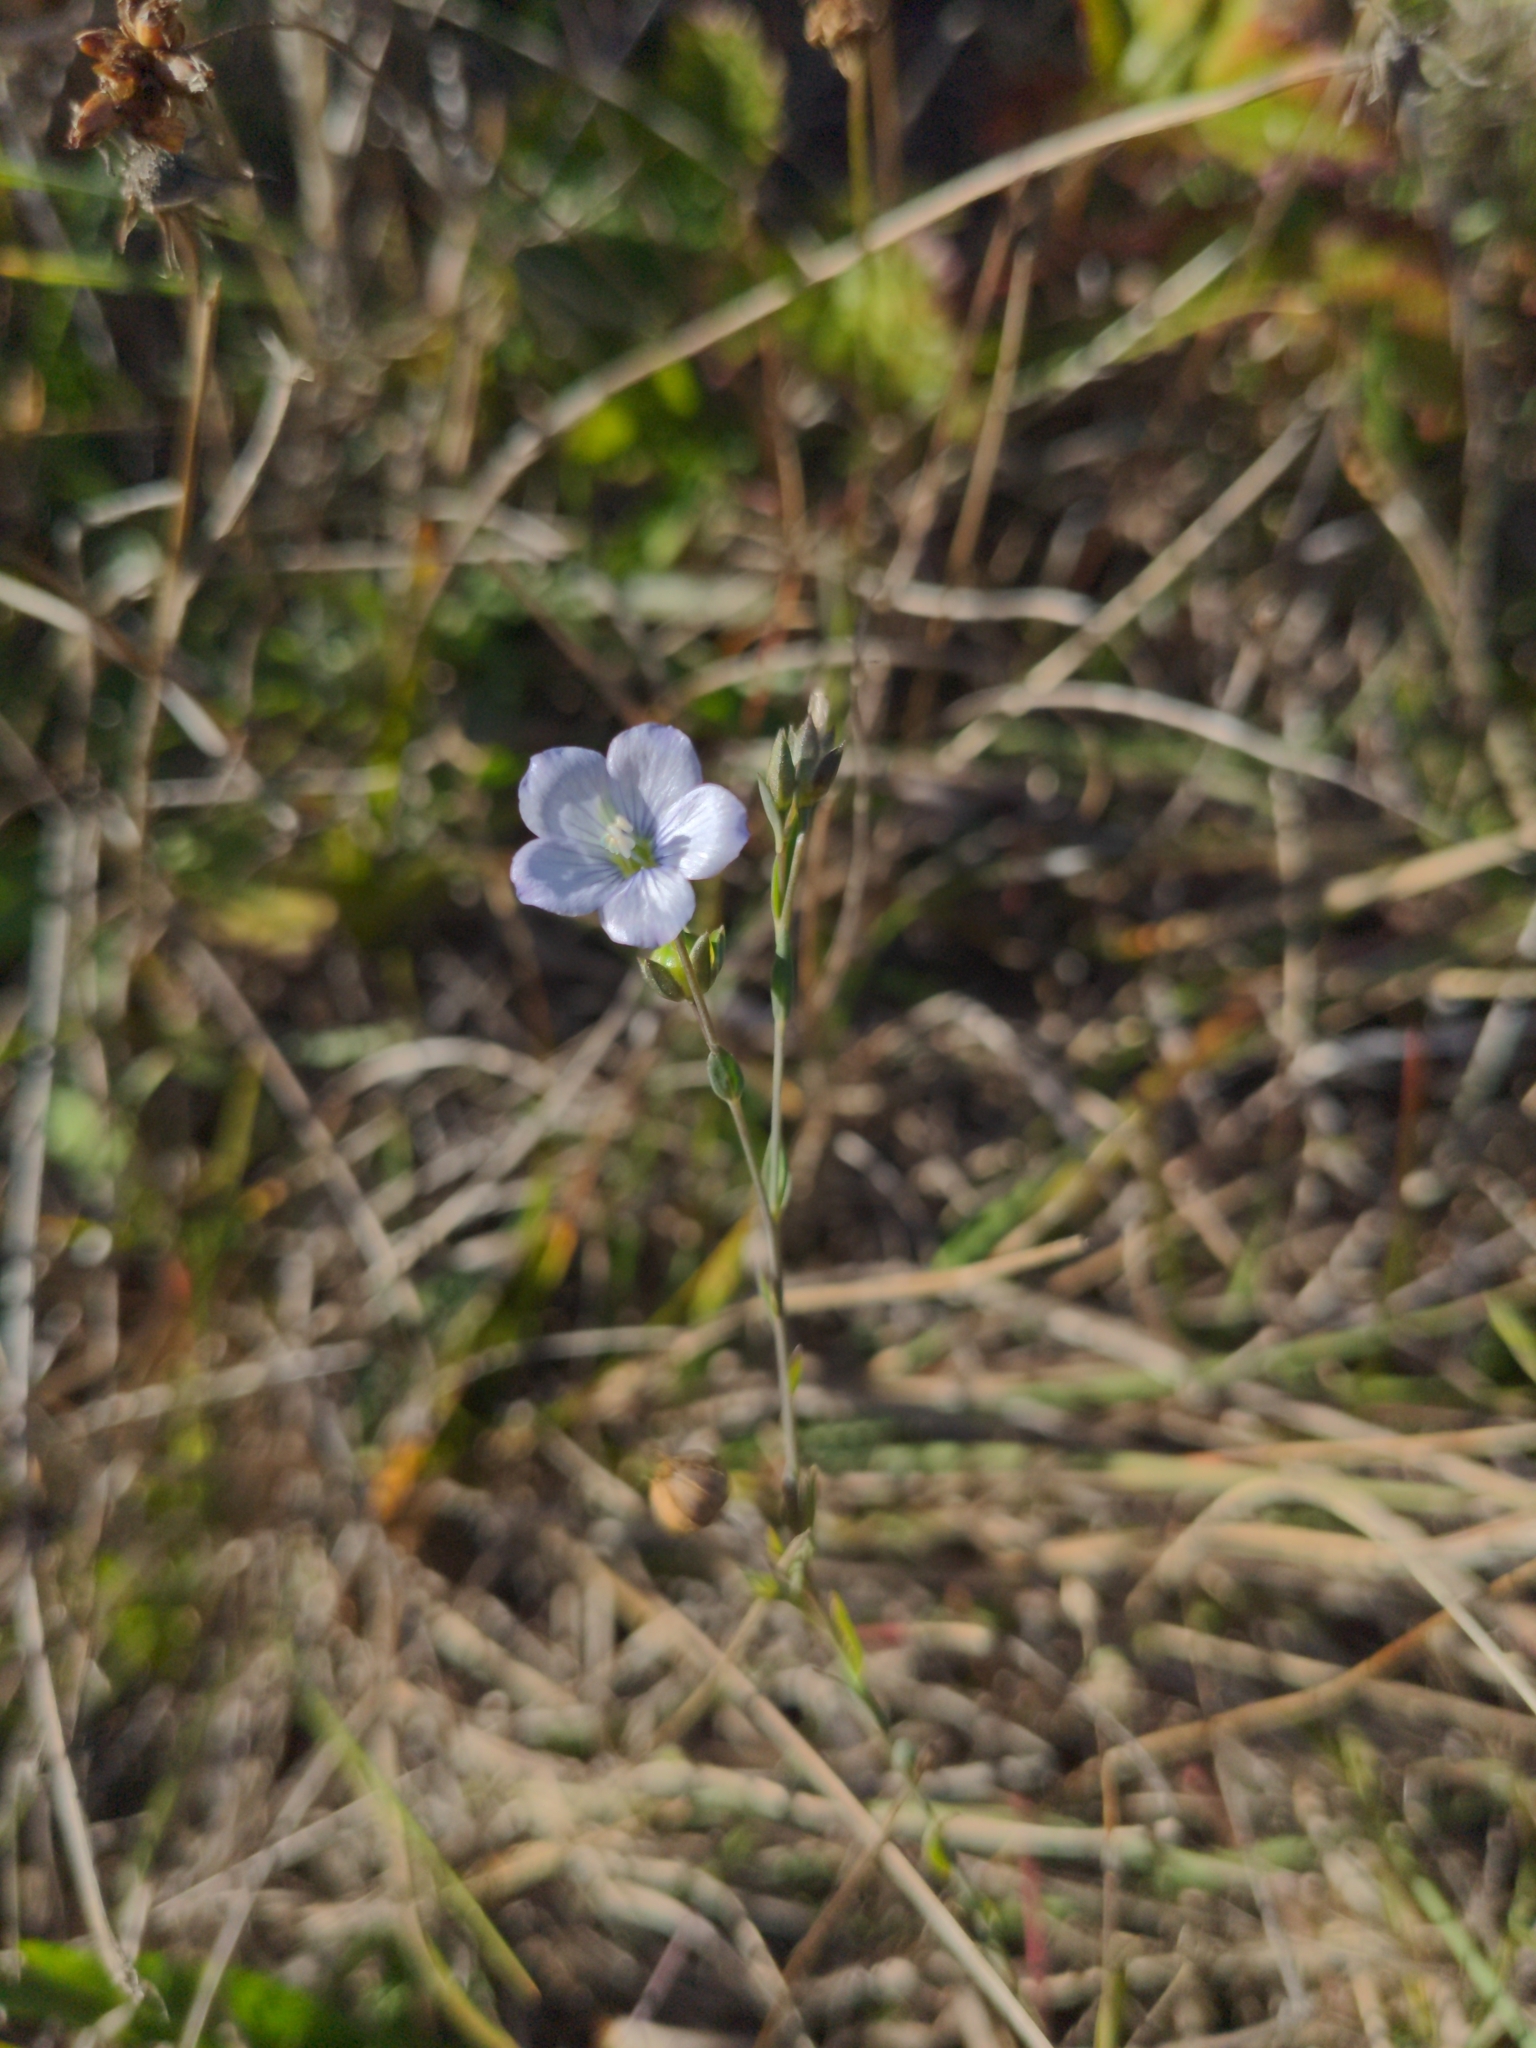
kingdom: Plantae
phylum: Tracheophyta
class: Magnoliopsida
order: Malpighiales
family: Linaceae
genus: Linum
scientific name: Linum bienne
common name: Pale flax
